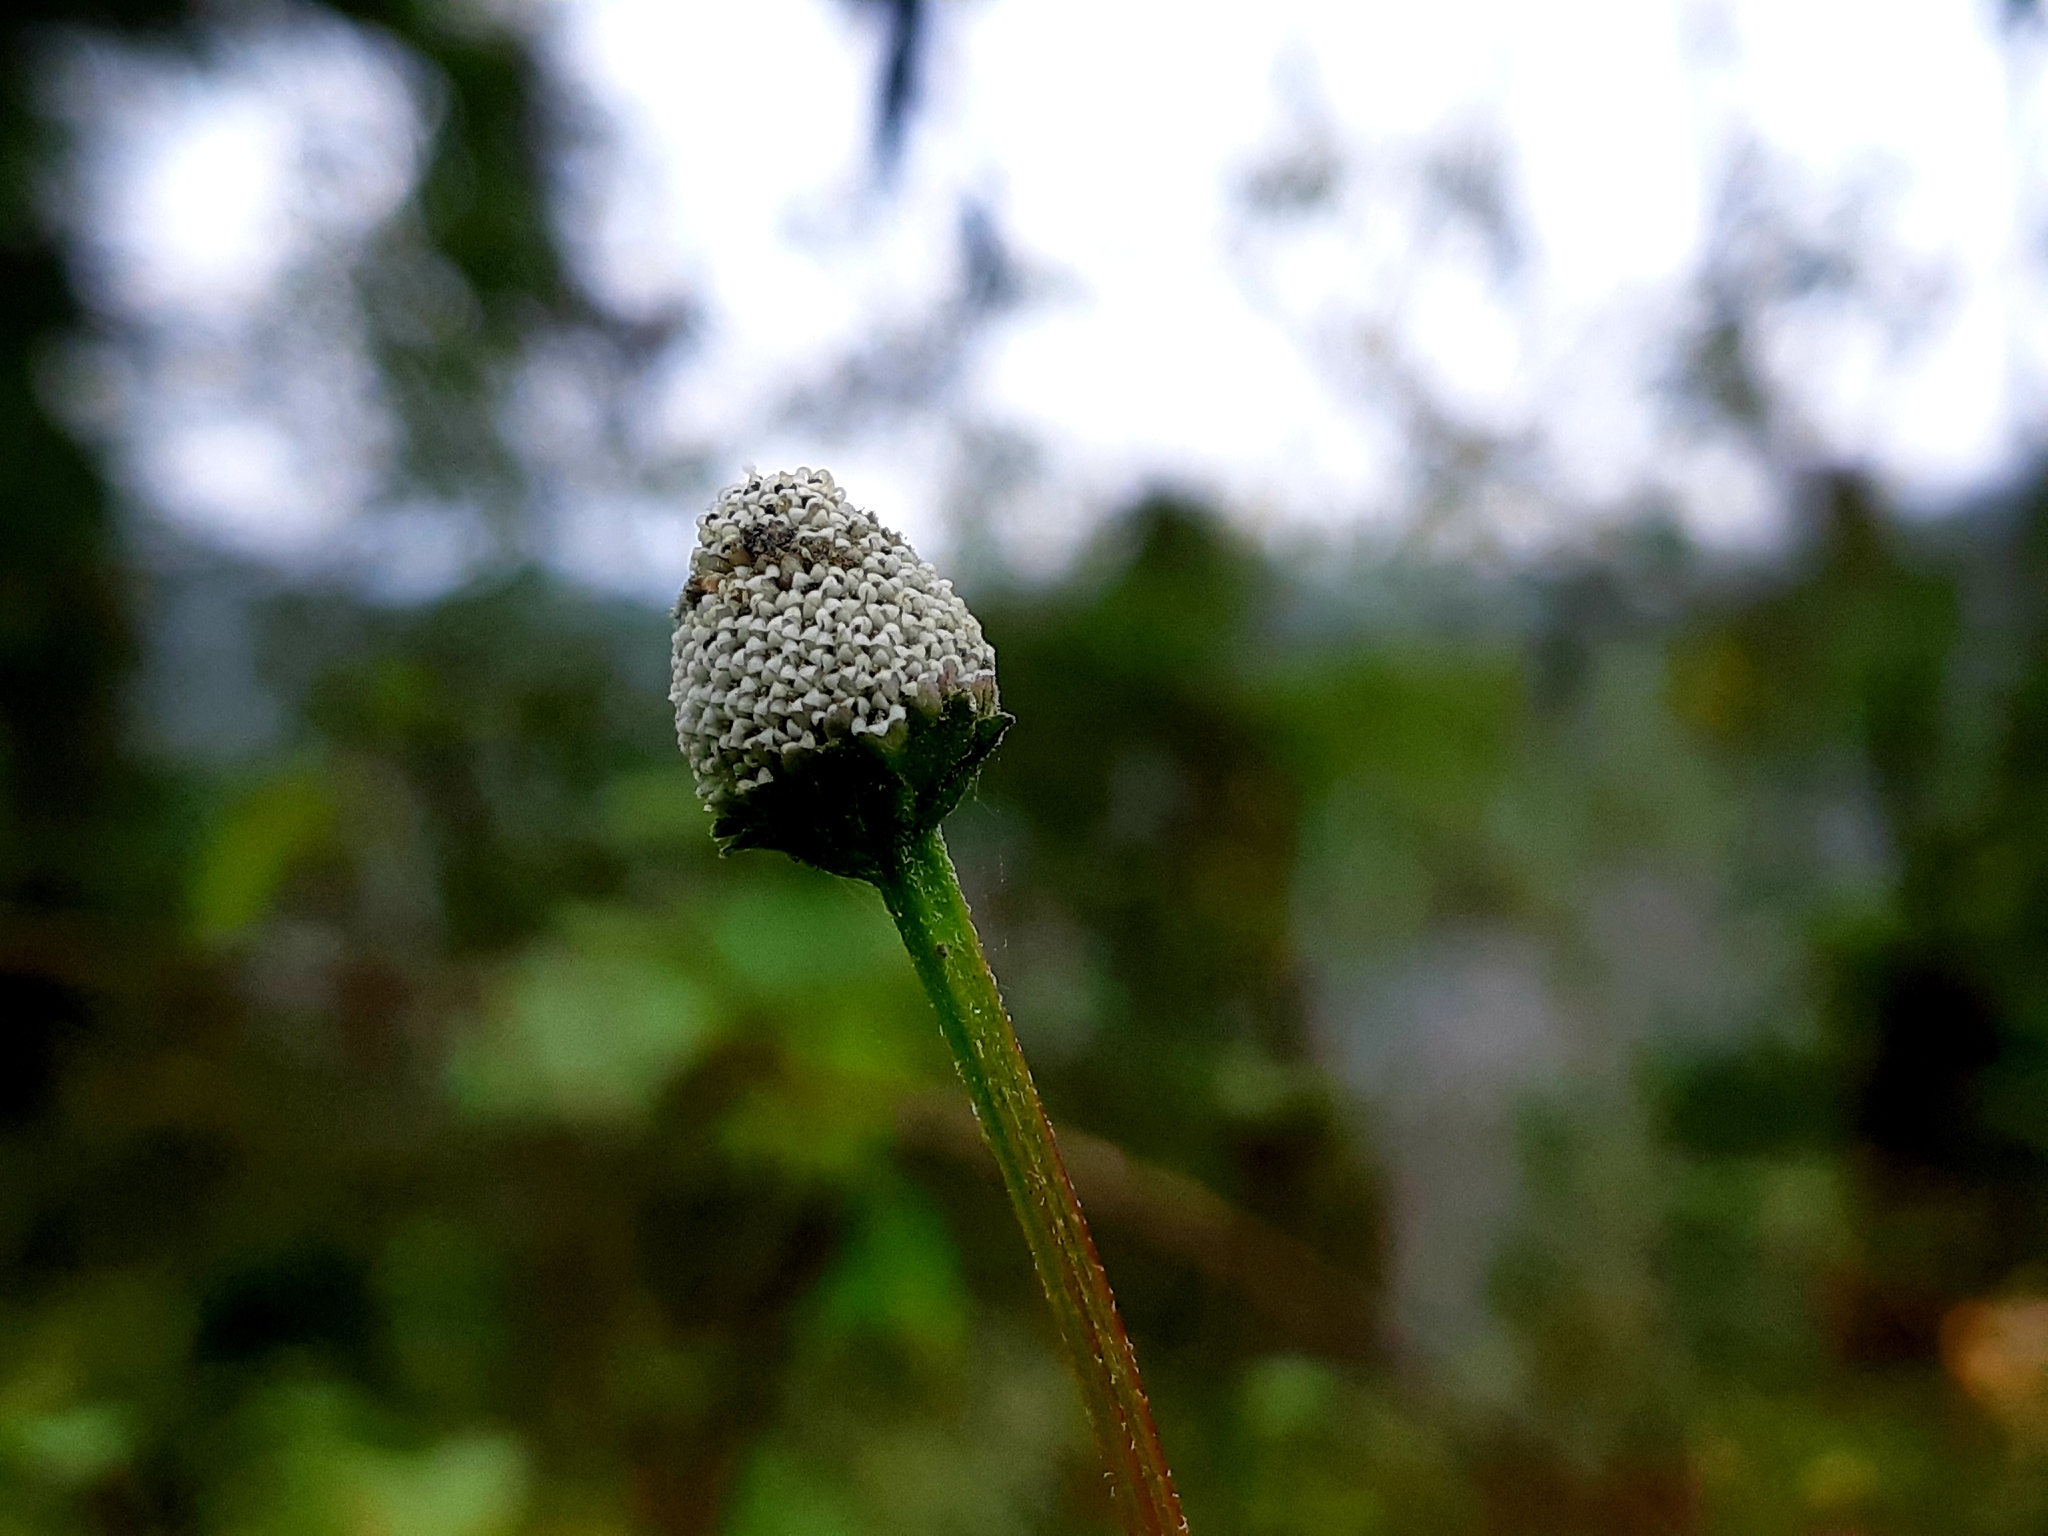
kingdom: Plantae
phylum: Tracheophyta
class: Magnoliopsida
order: Asterales
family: Asteraceae
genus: Acmella
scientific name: Acmella alba
